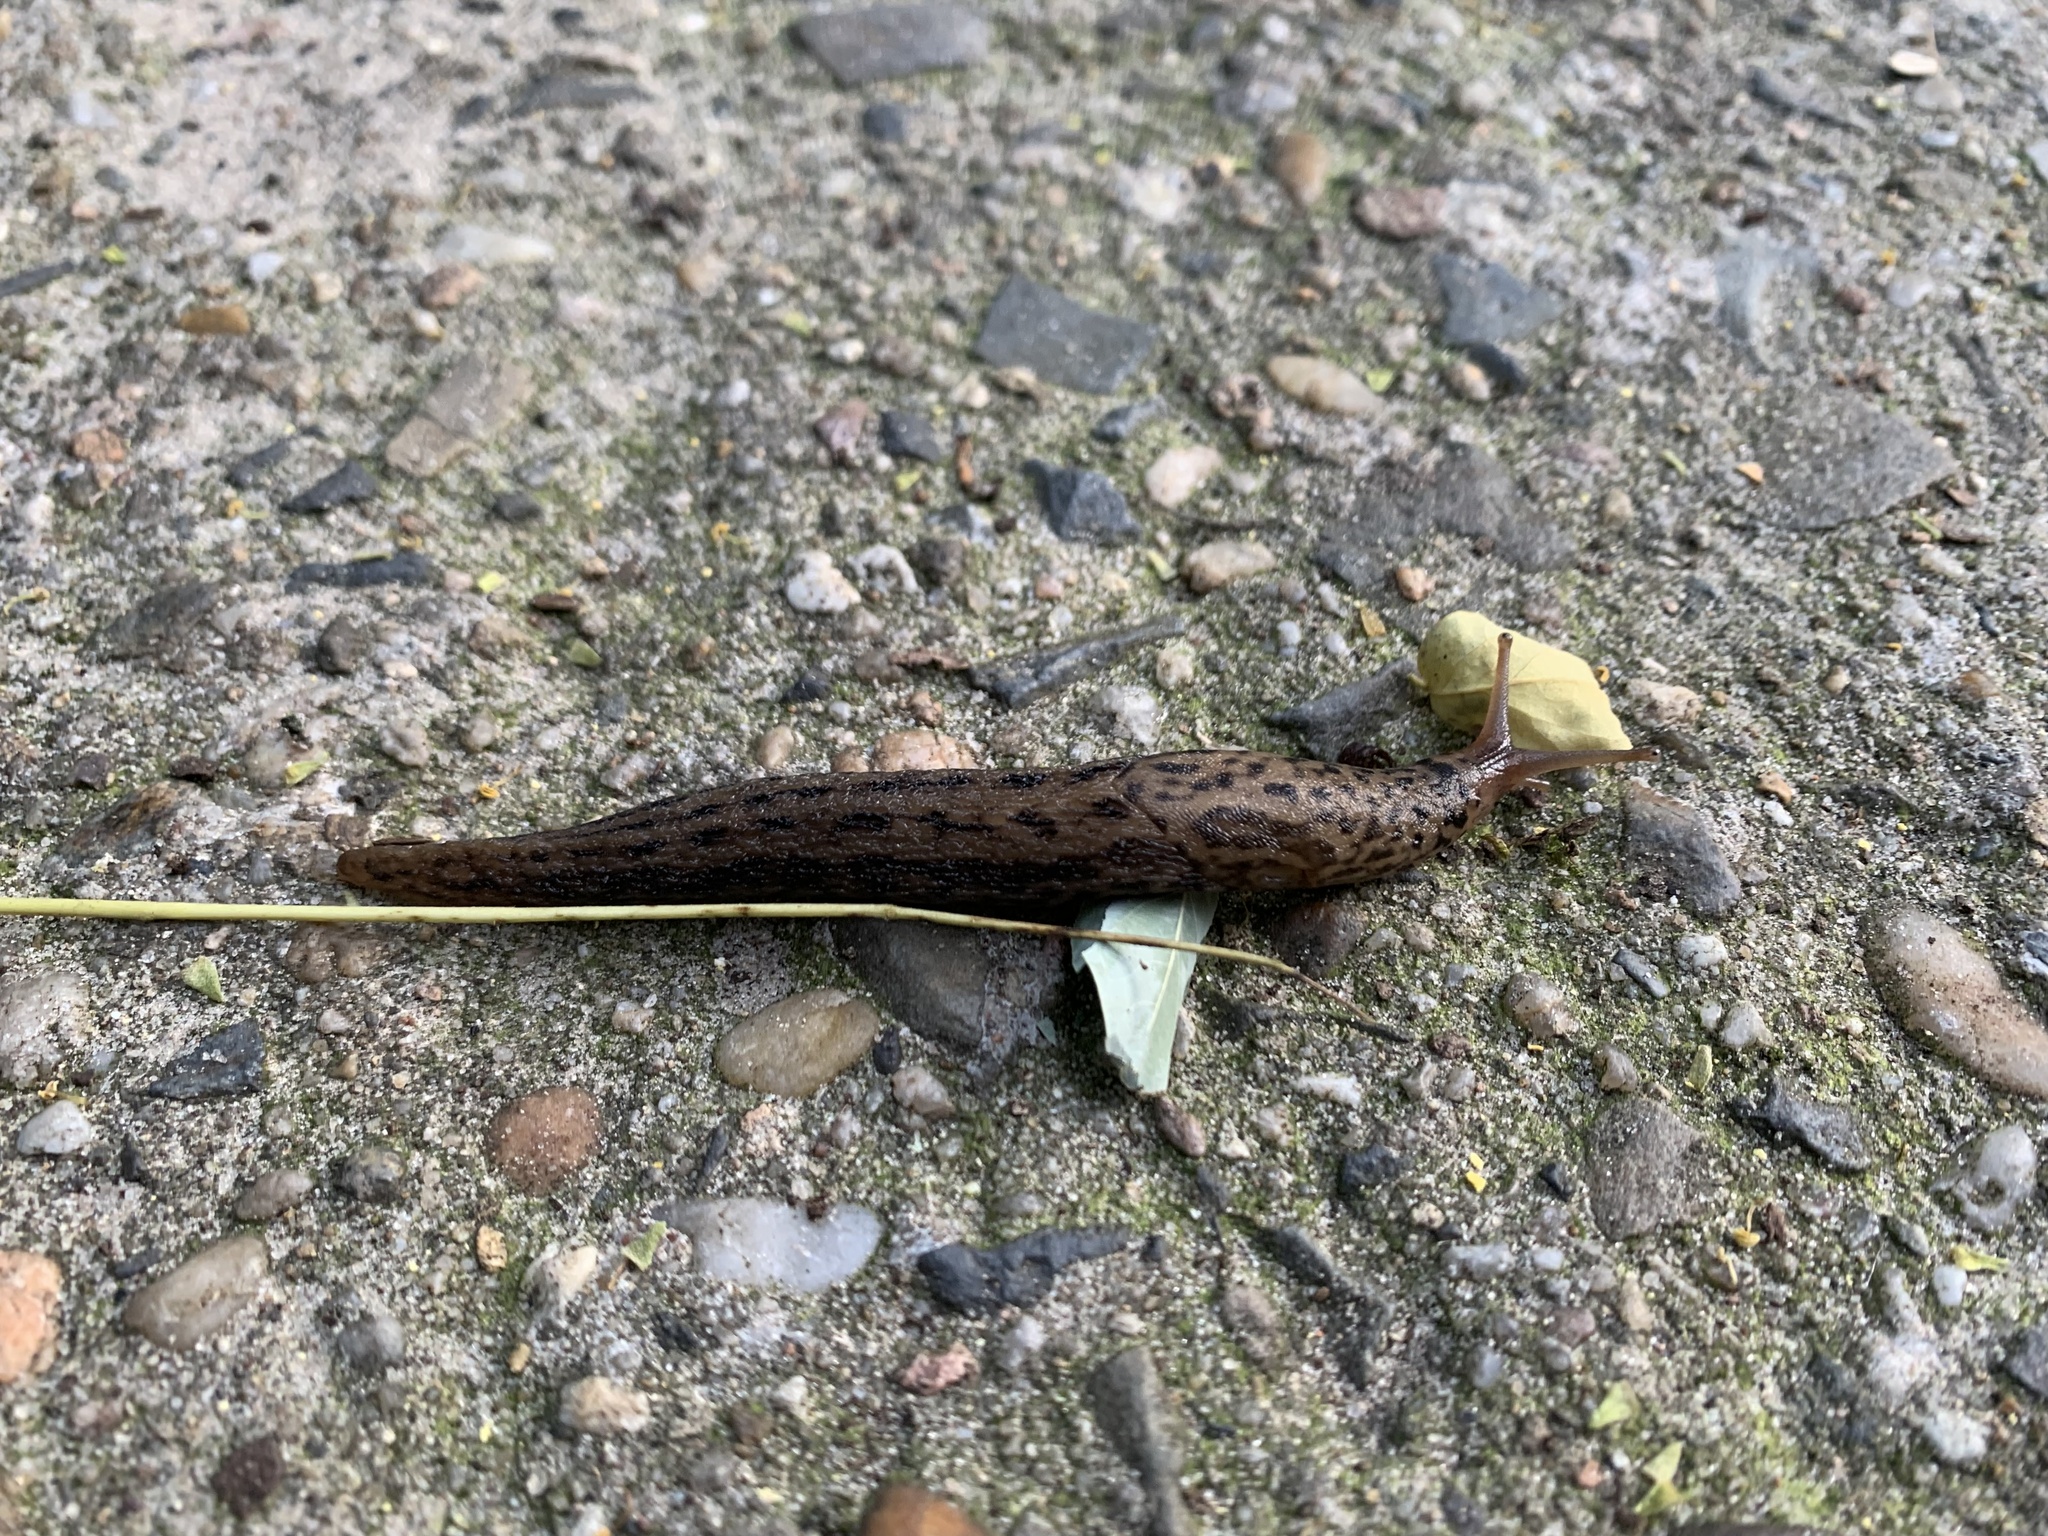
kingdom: Animalia
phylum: Mollusca
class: Gastropoda
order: Stylommatophora
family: Limacidae
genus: Limax
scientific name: Limax maximus
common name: Great grey slug
